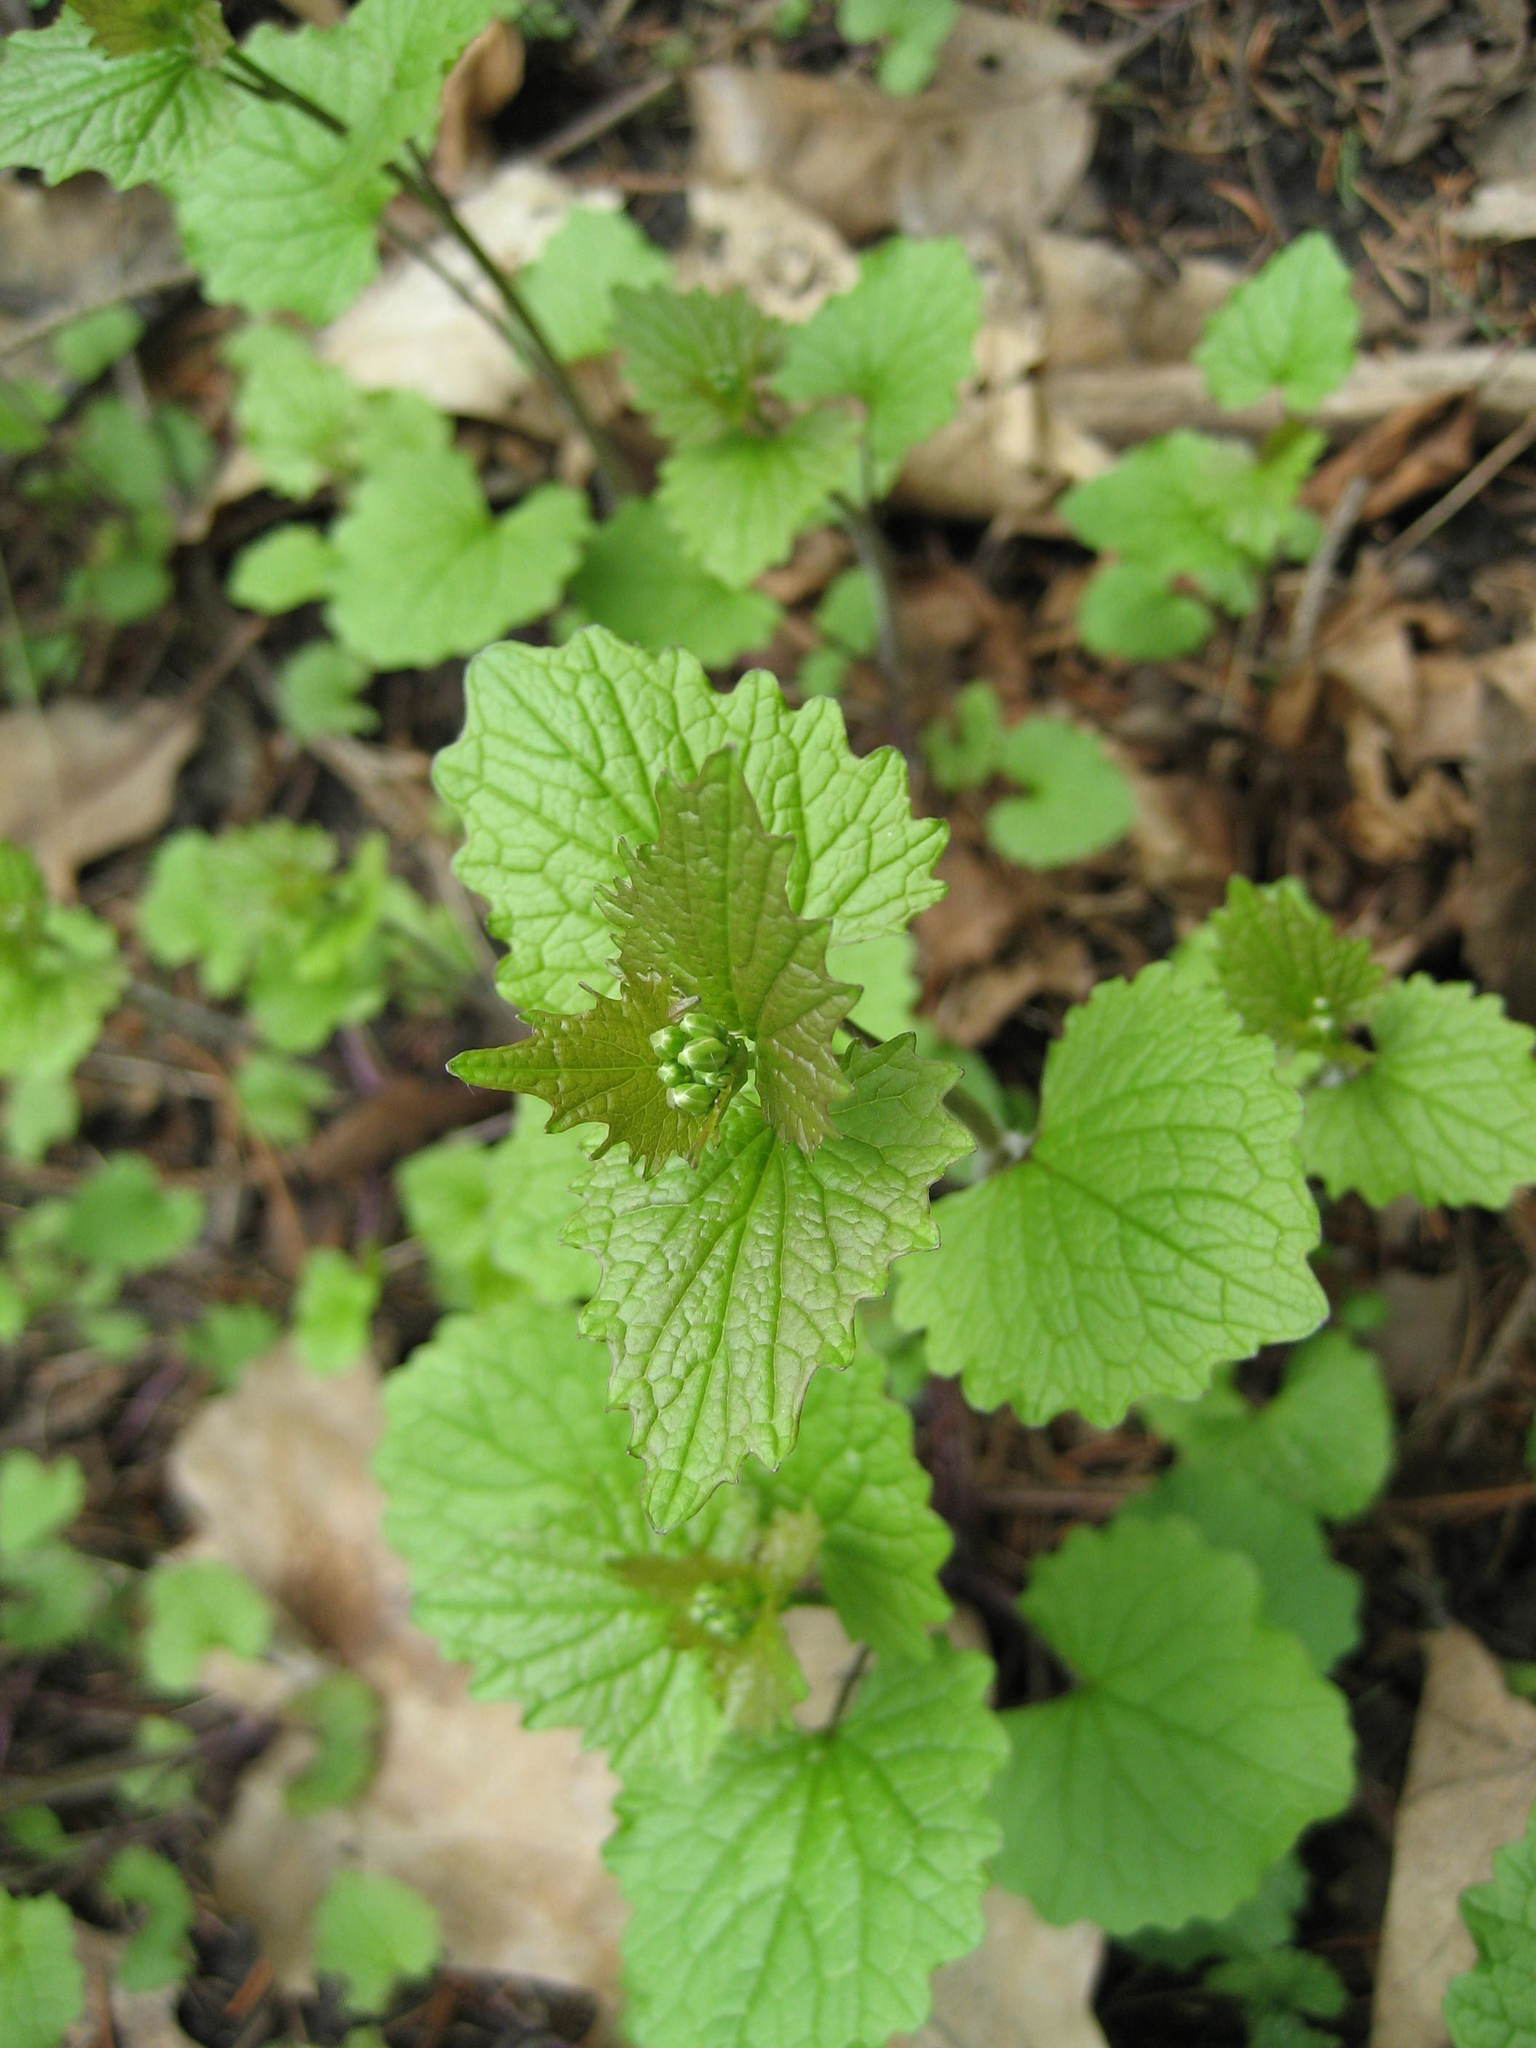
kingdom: Plantae
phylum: Tracheophyta
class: Magnoliopsida
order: Brassicales
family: Brassicaceae
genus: Alliaria
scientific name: Alliaria petiolata
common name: Garlic mustard
